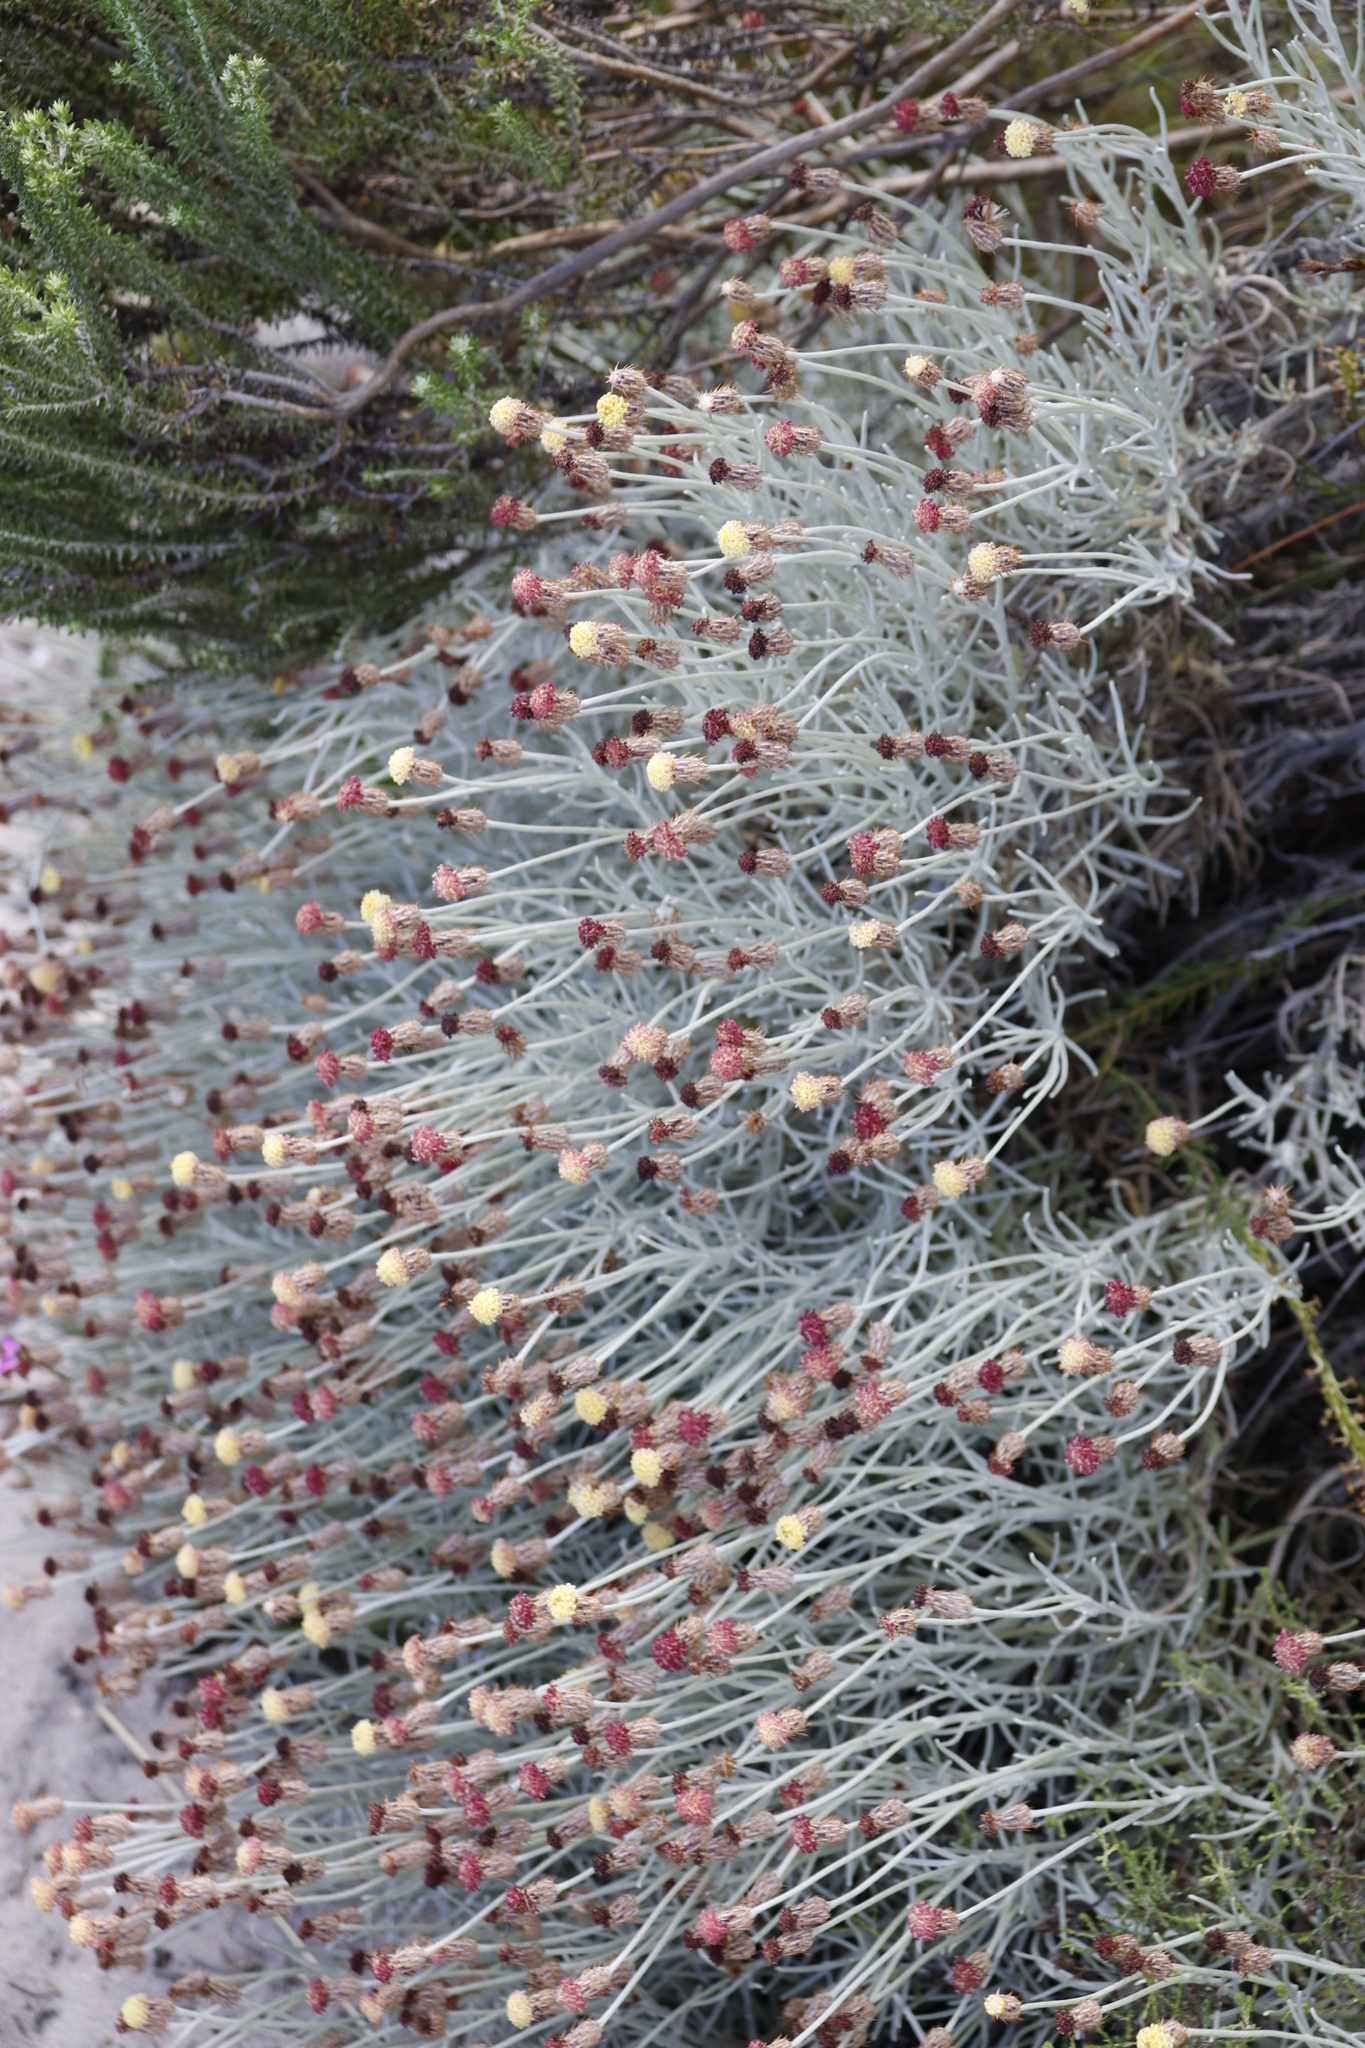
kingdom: Plantae
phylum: Tracheophyta
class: Magnoliopsida
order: Asterales
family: Asteraceae
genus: Syncarpha
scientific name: Syncarpha gnaphaloides
